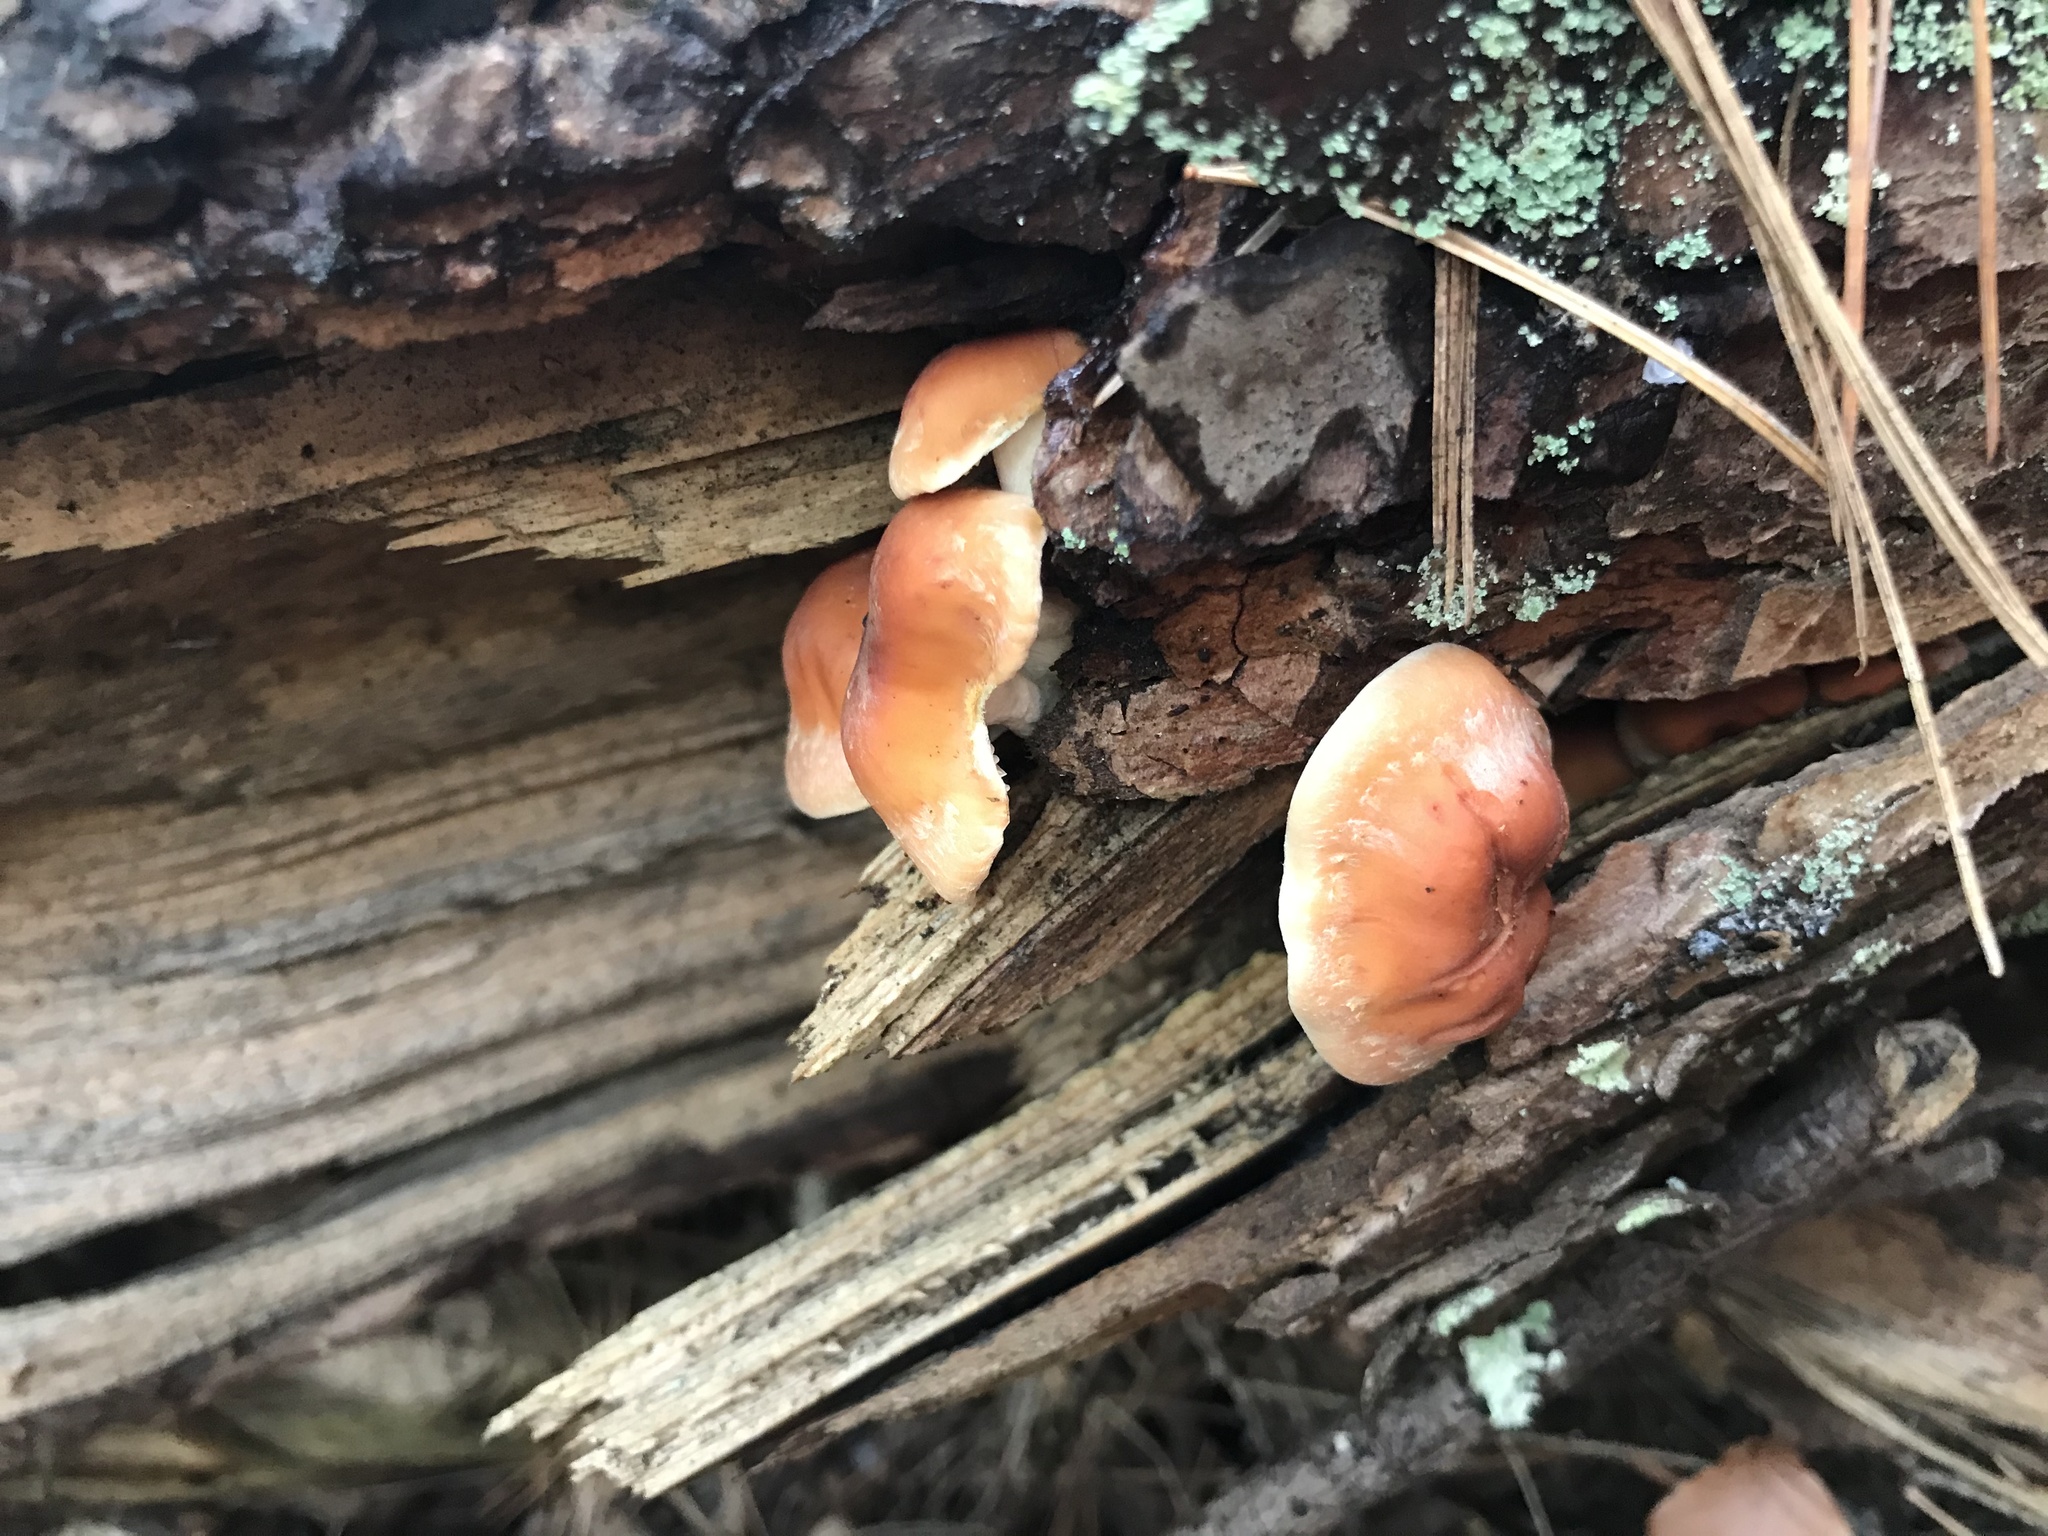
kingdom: Fungi
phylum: Basidiomycota
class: Agaricomycetes
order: Agaricales
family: Strophariaceae
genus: Hypholoma
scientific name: Hypholoma lateritium
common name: Brick caps
